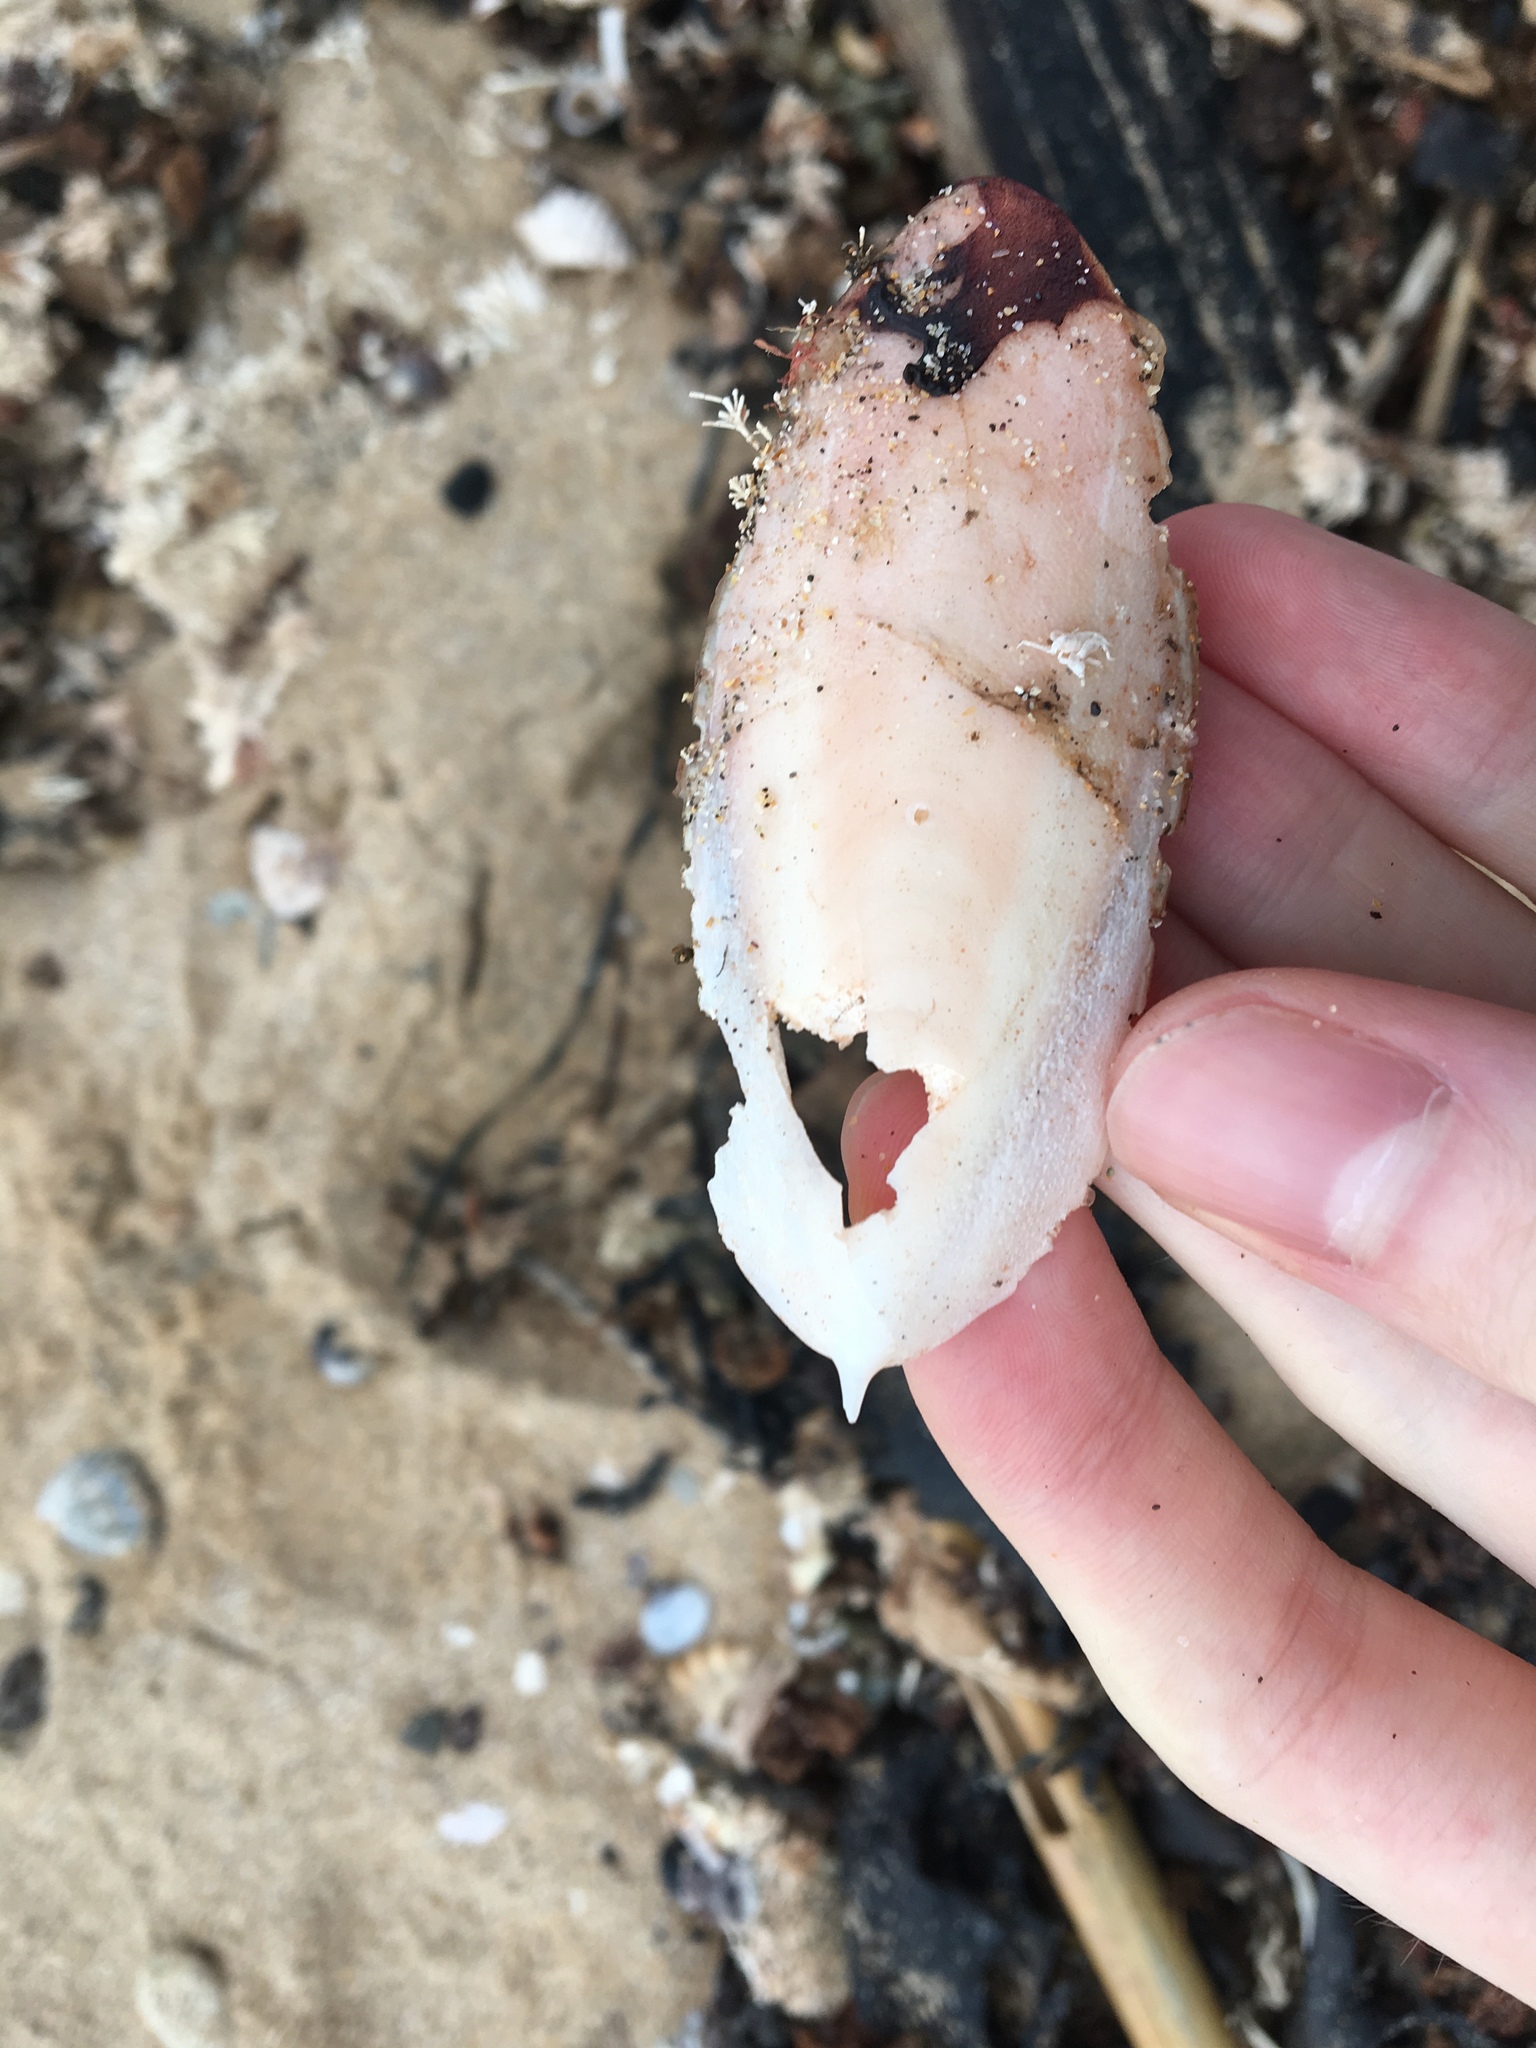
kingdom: Animalia
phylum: Mollusca
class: Cephalopoda
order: Sepiida
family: Sepiidae
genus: Sepia
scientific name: Sepia grahami
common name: Ken's cuttlefish
